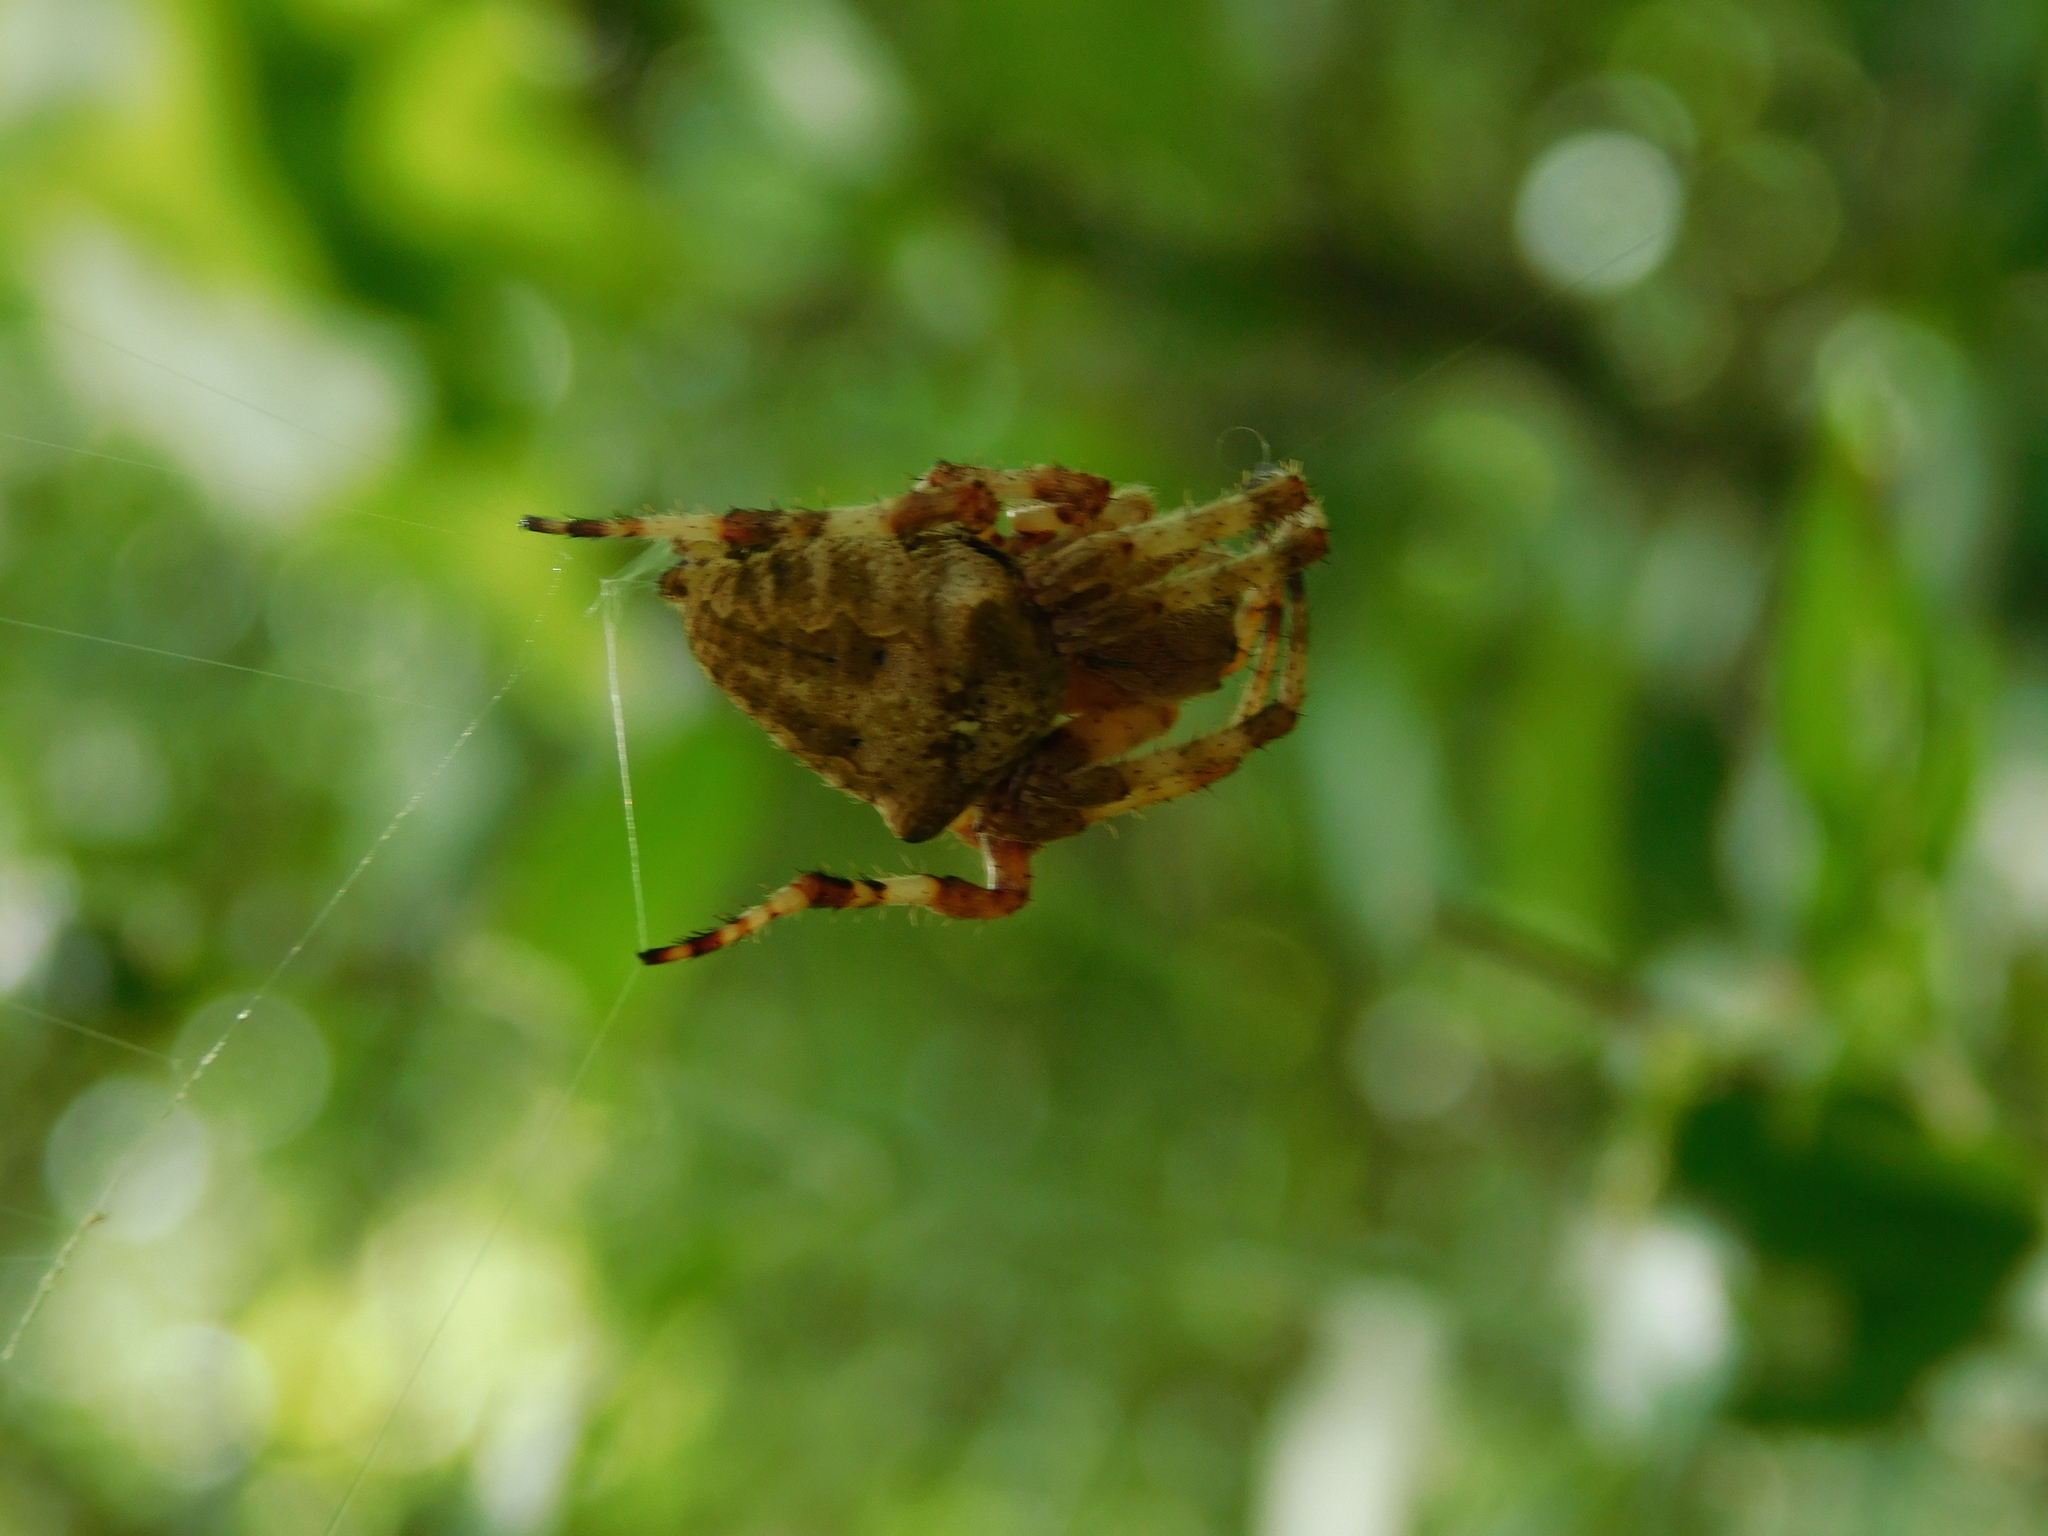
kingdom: Animalia
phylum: Arthropoda
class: Arachnida
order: Araneae
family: Araneidae
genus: Araneus
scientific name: Araneus angulatus
